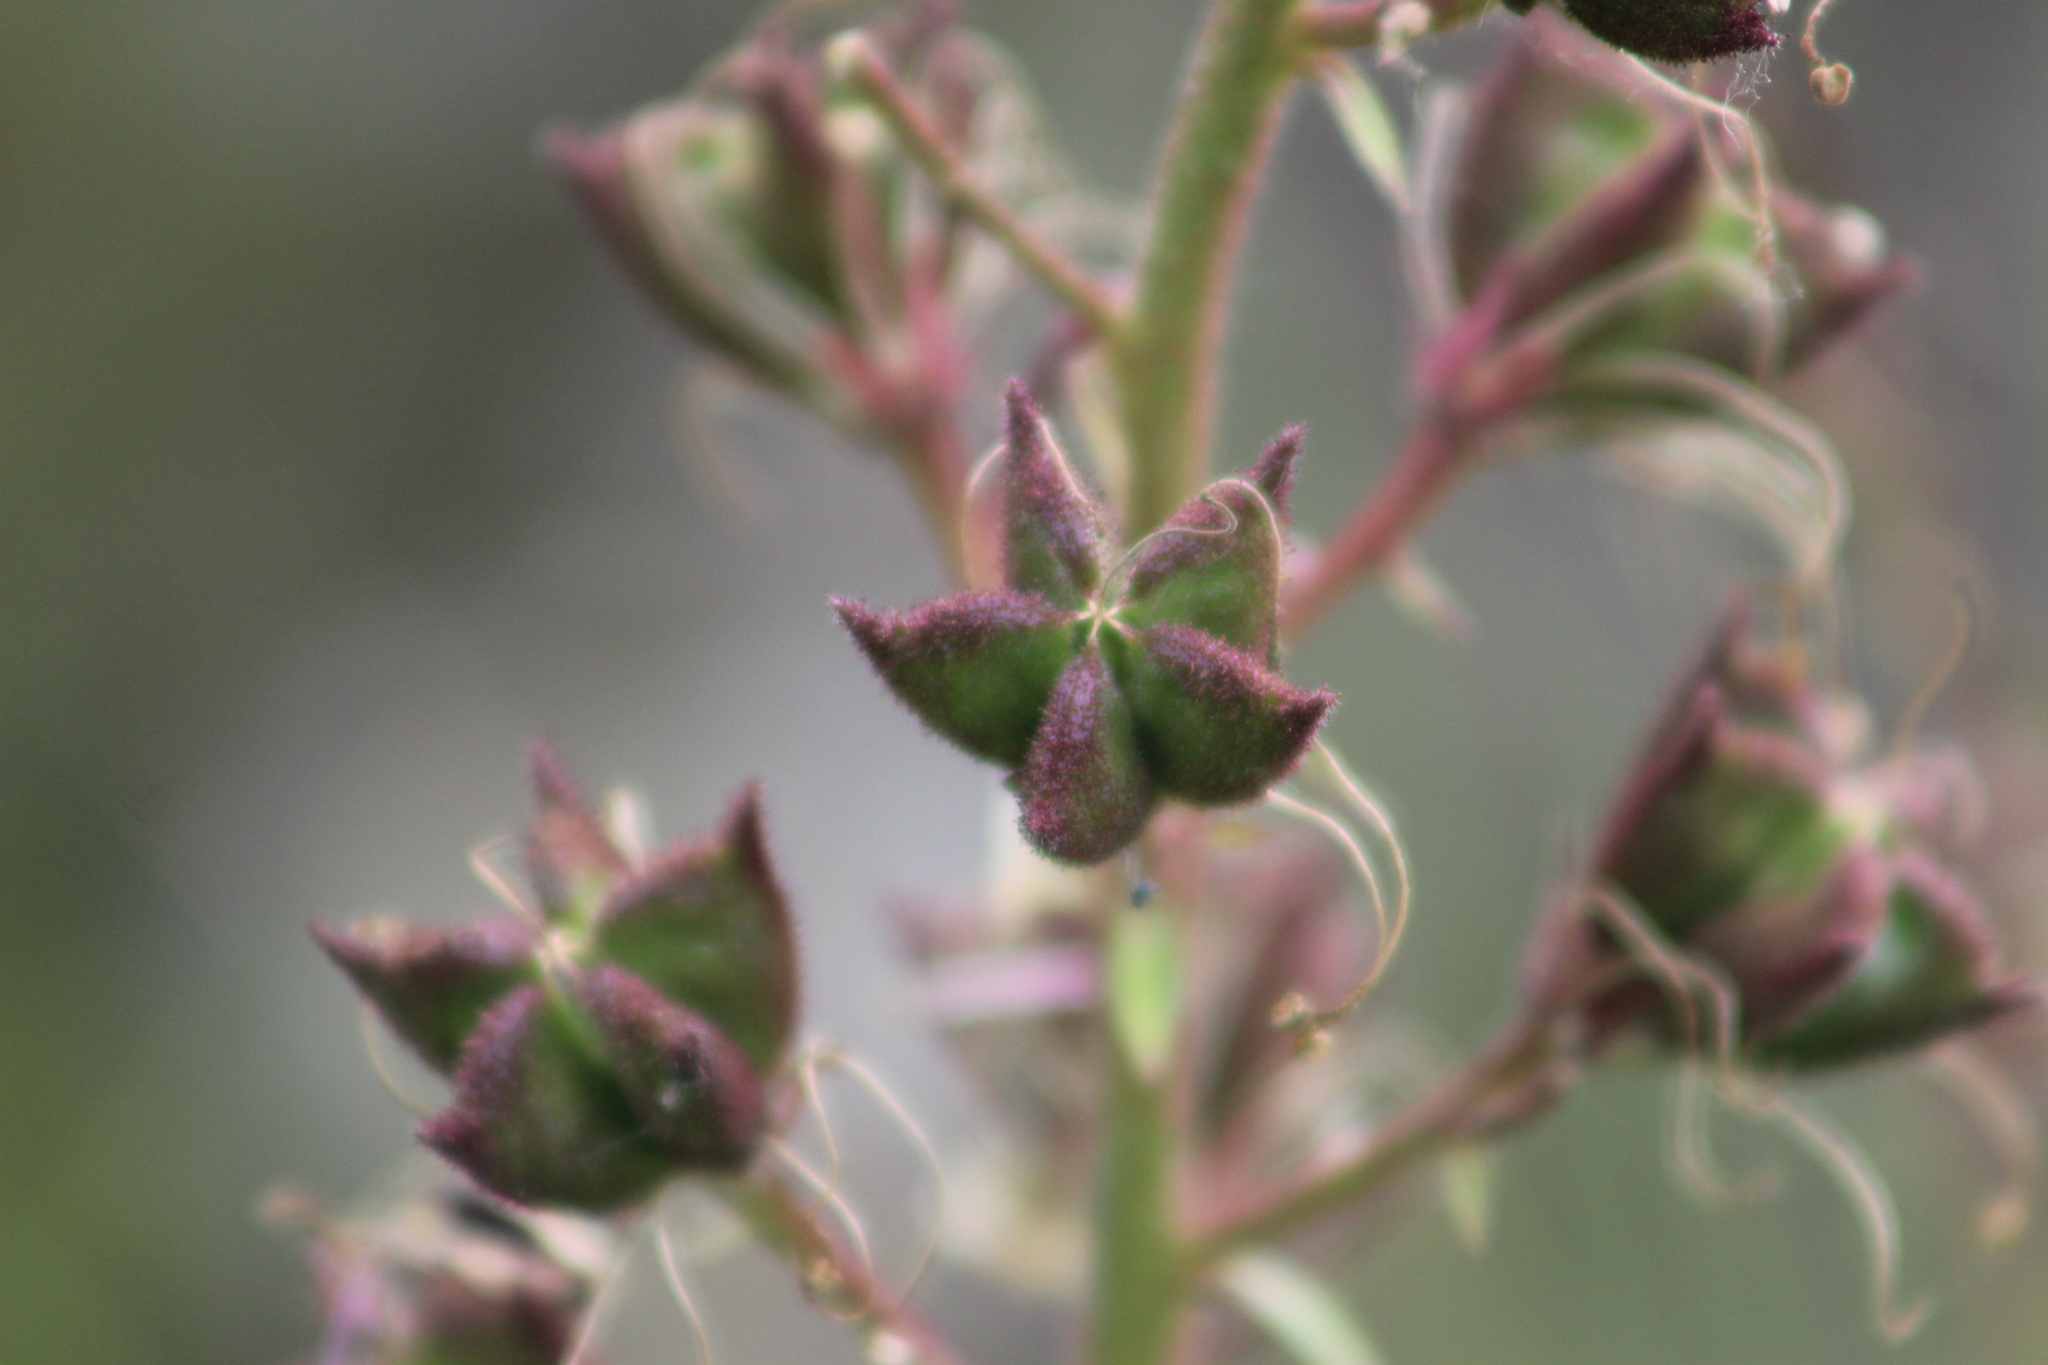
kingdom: Plantae
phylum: Tracheophyta
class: Magnoliopsida
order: Sapindales
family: Rutaceae
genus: Dictamnus
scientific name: Dictamnus albus
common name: Gasplant
